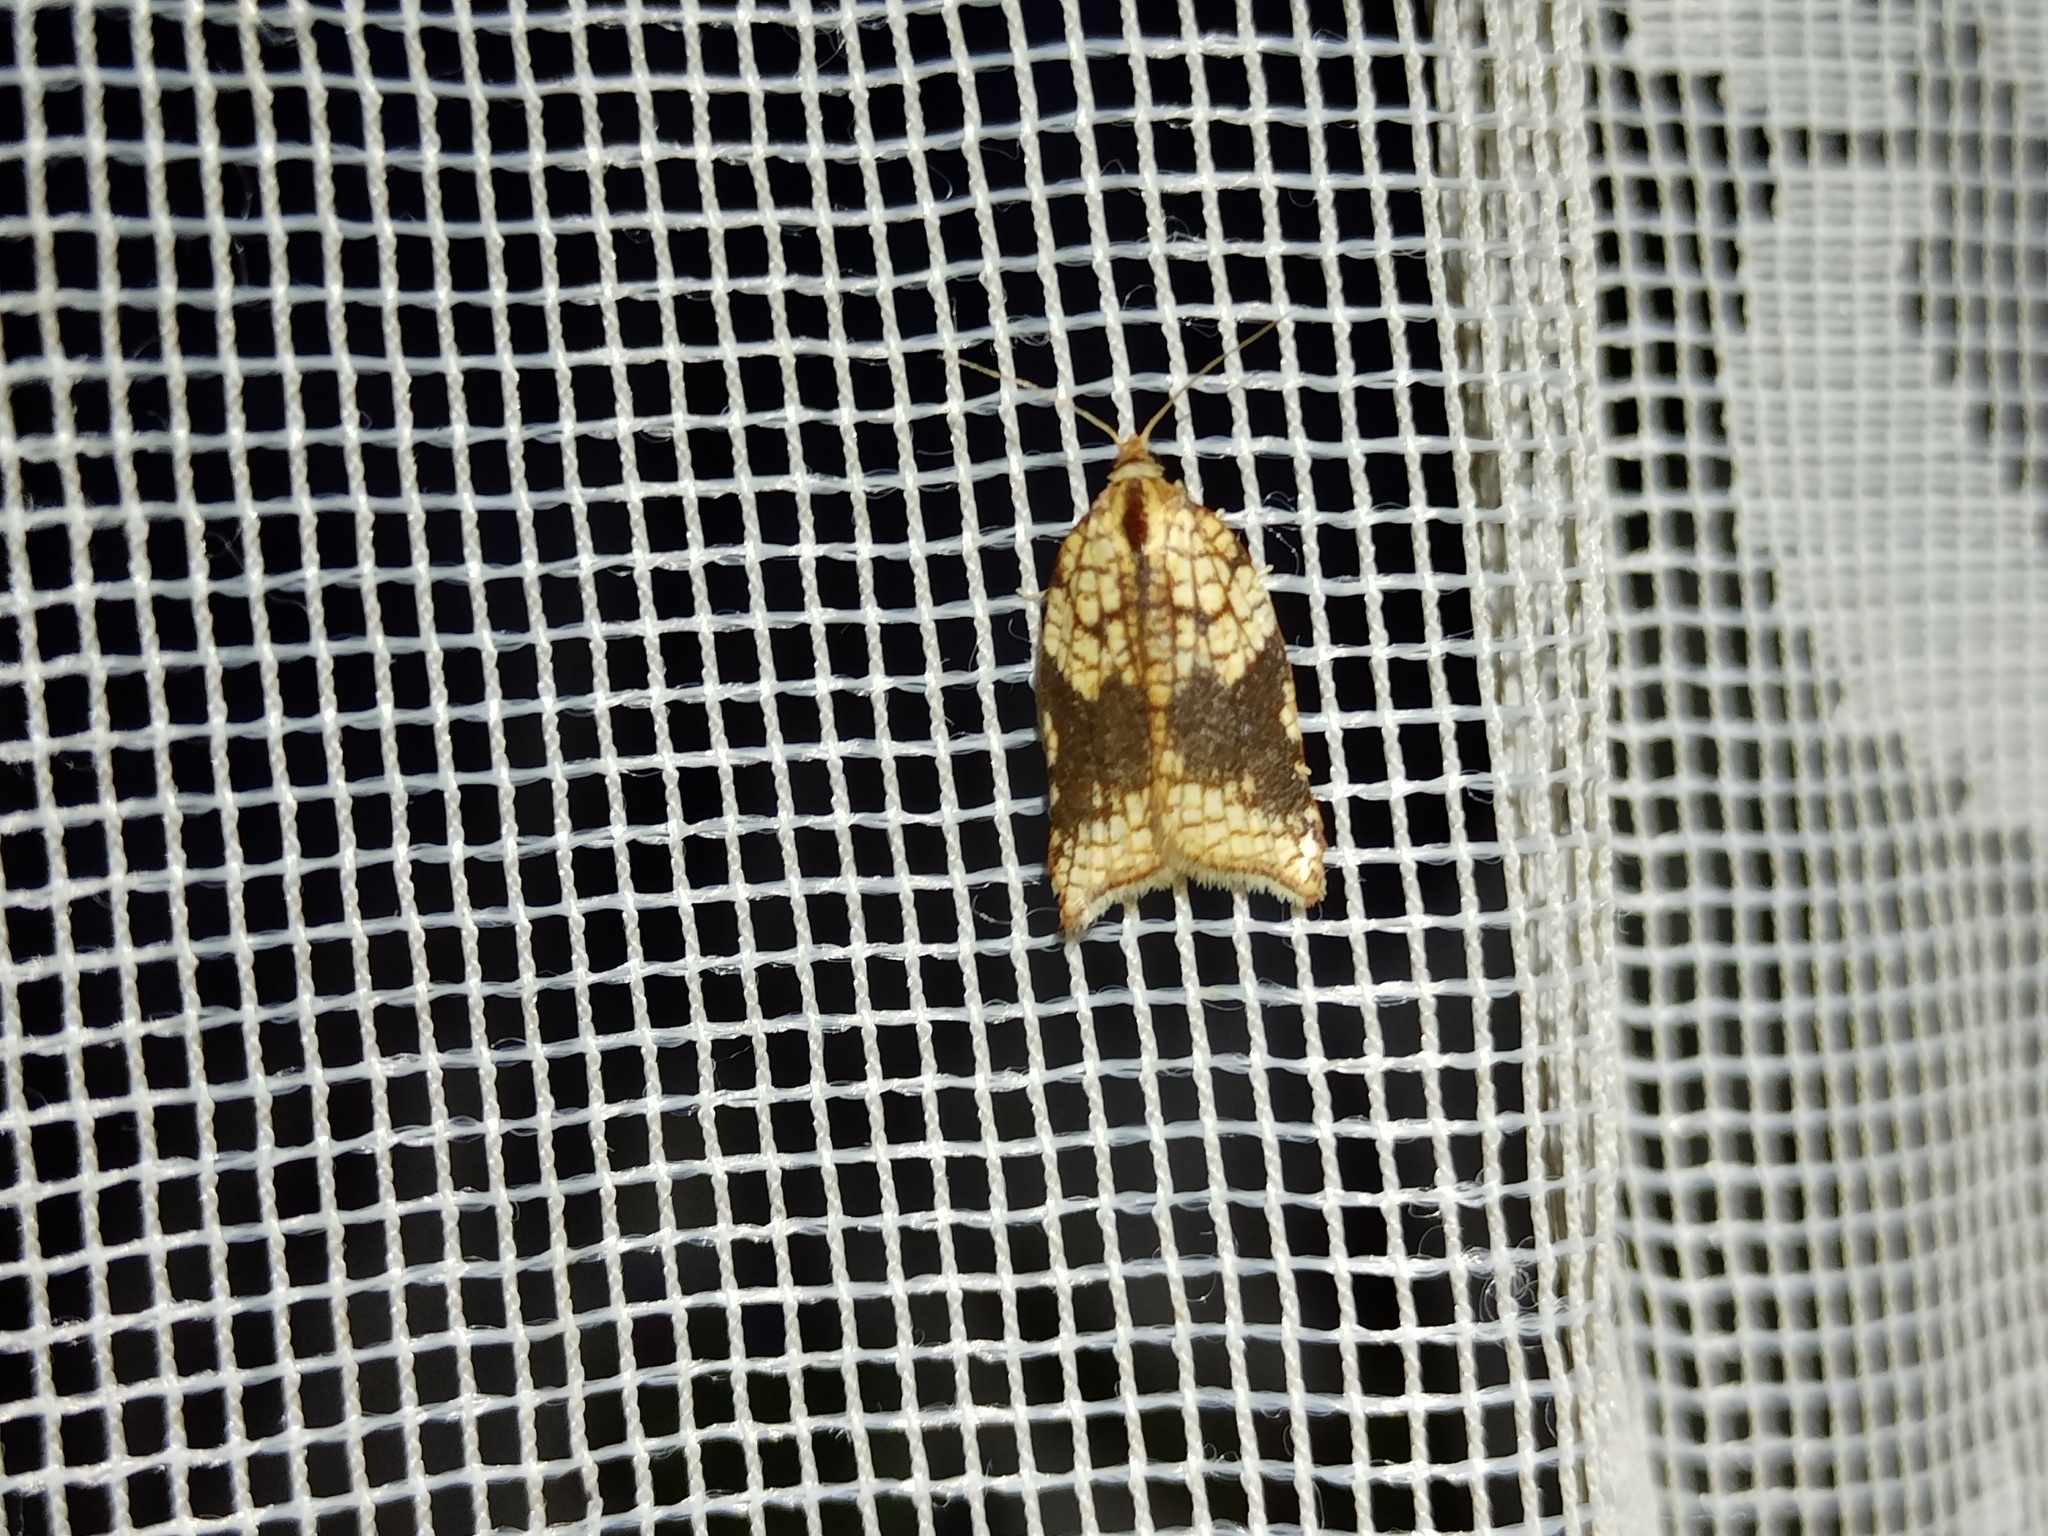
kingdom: Animalia
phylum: Arthropoda
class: Insecta
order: Lepidoptera
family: Tortricidae
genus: Acleris
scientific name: Acleris rhombana
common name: Tortricid moth
